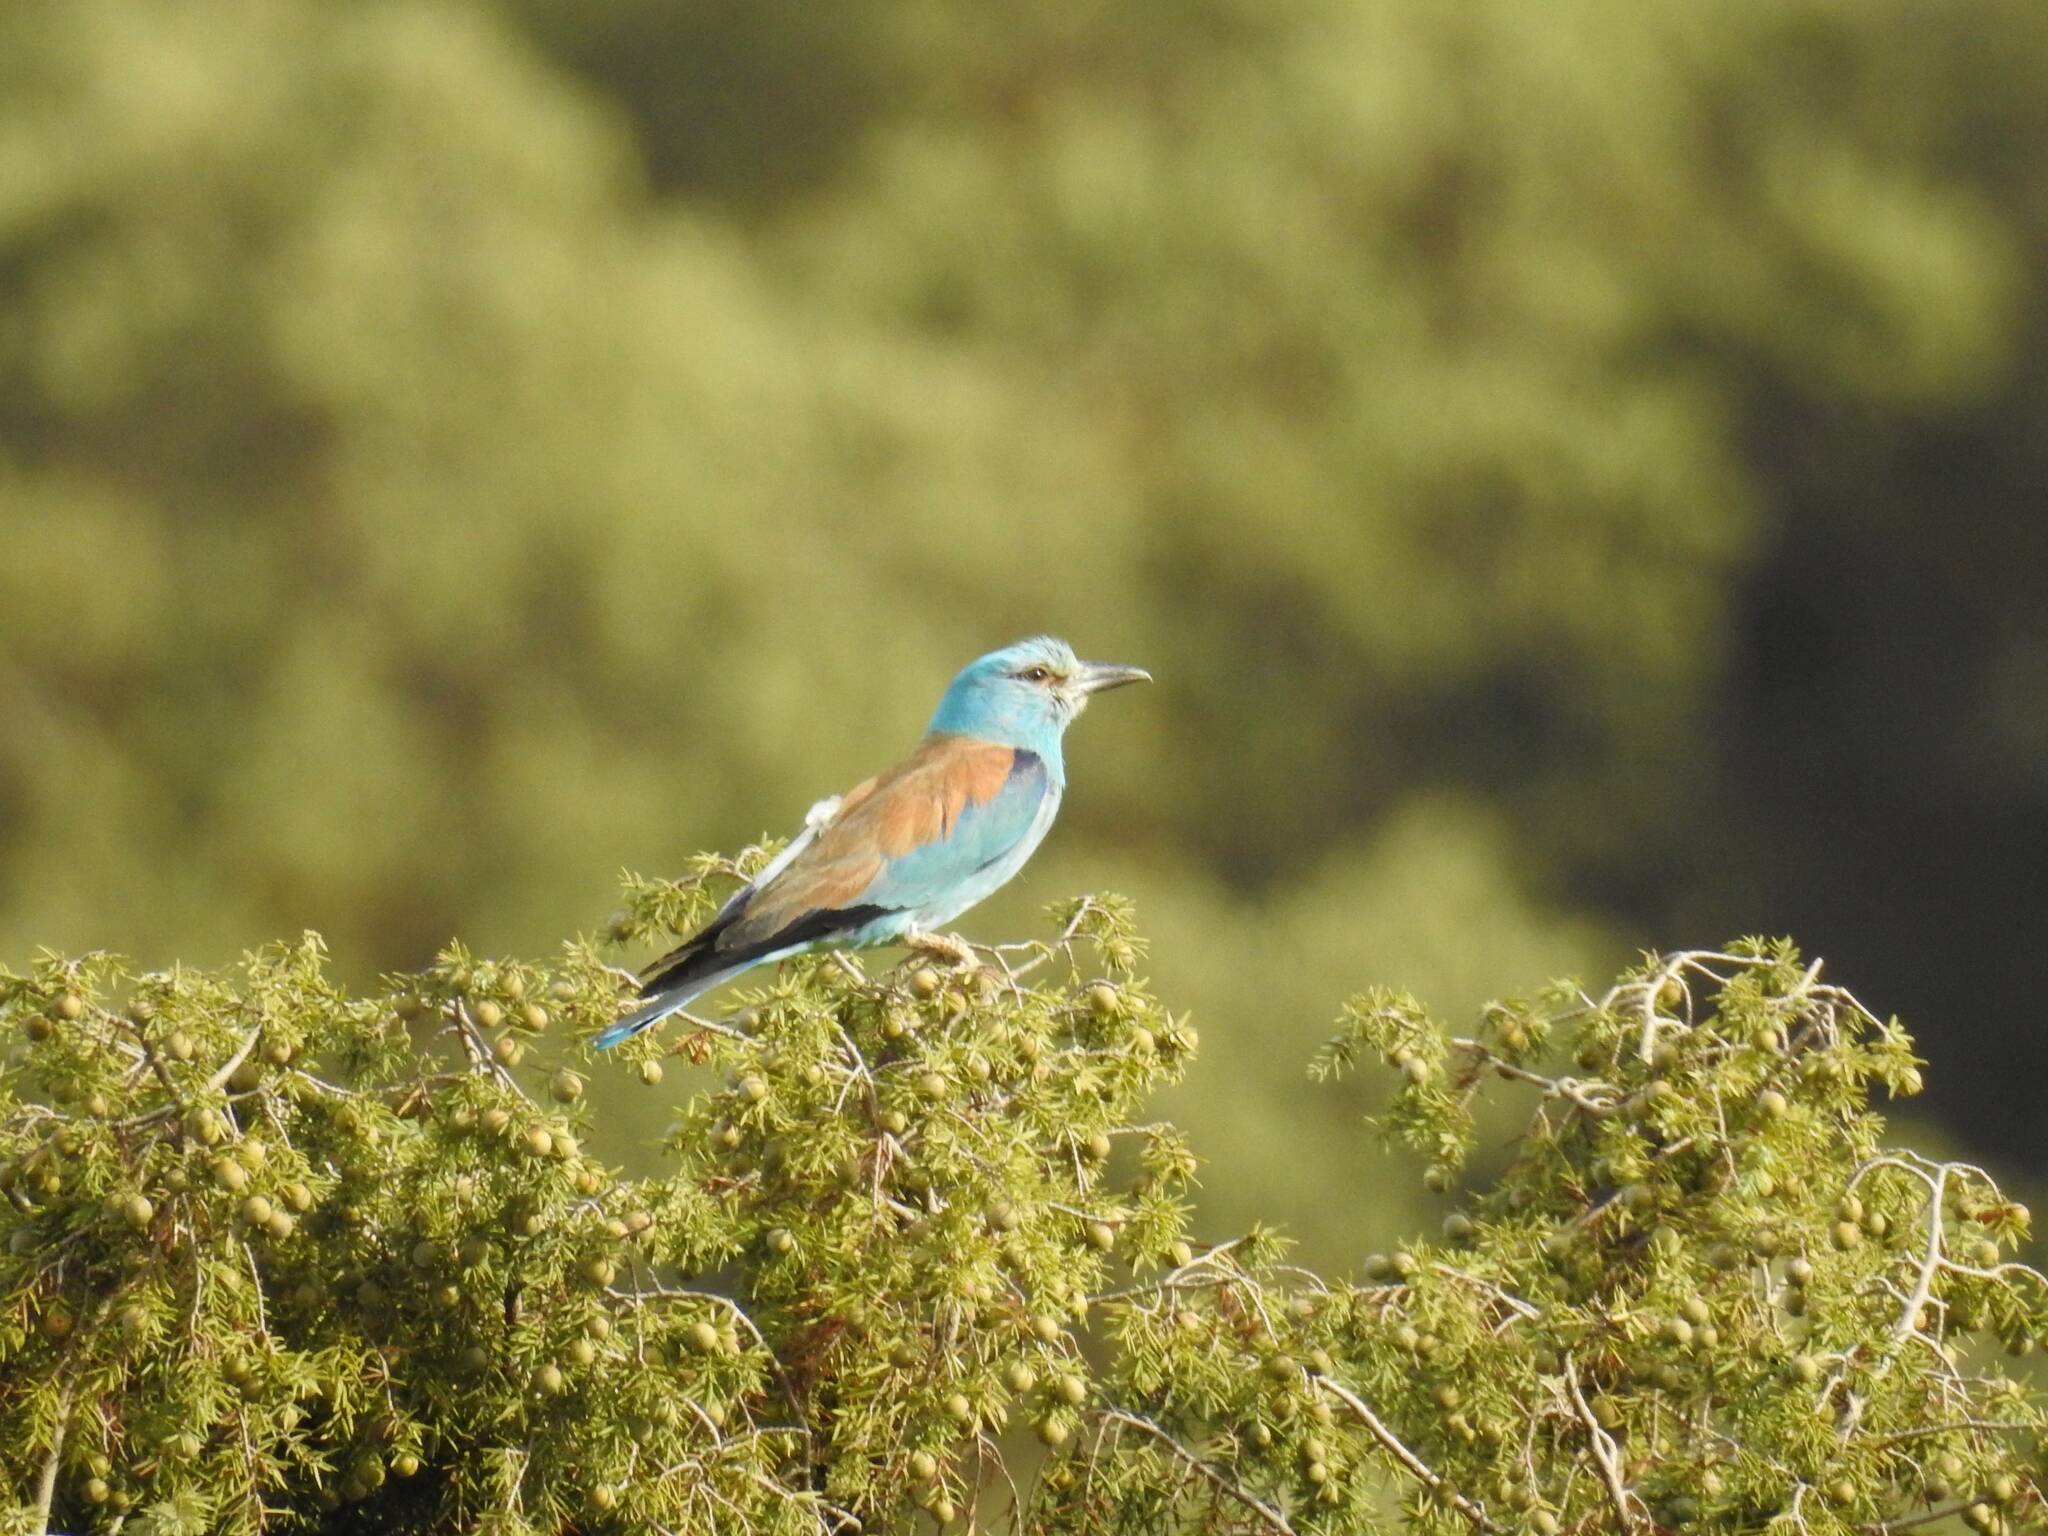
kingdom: Animalia
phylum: Chordata
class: Aves
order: Coraciiformes
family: Coraciidae
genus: Coracias
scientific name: Coracias garrulus
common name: European roller
